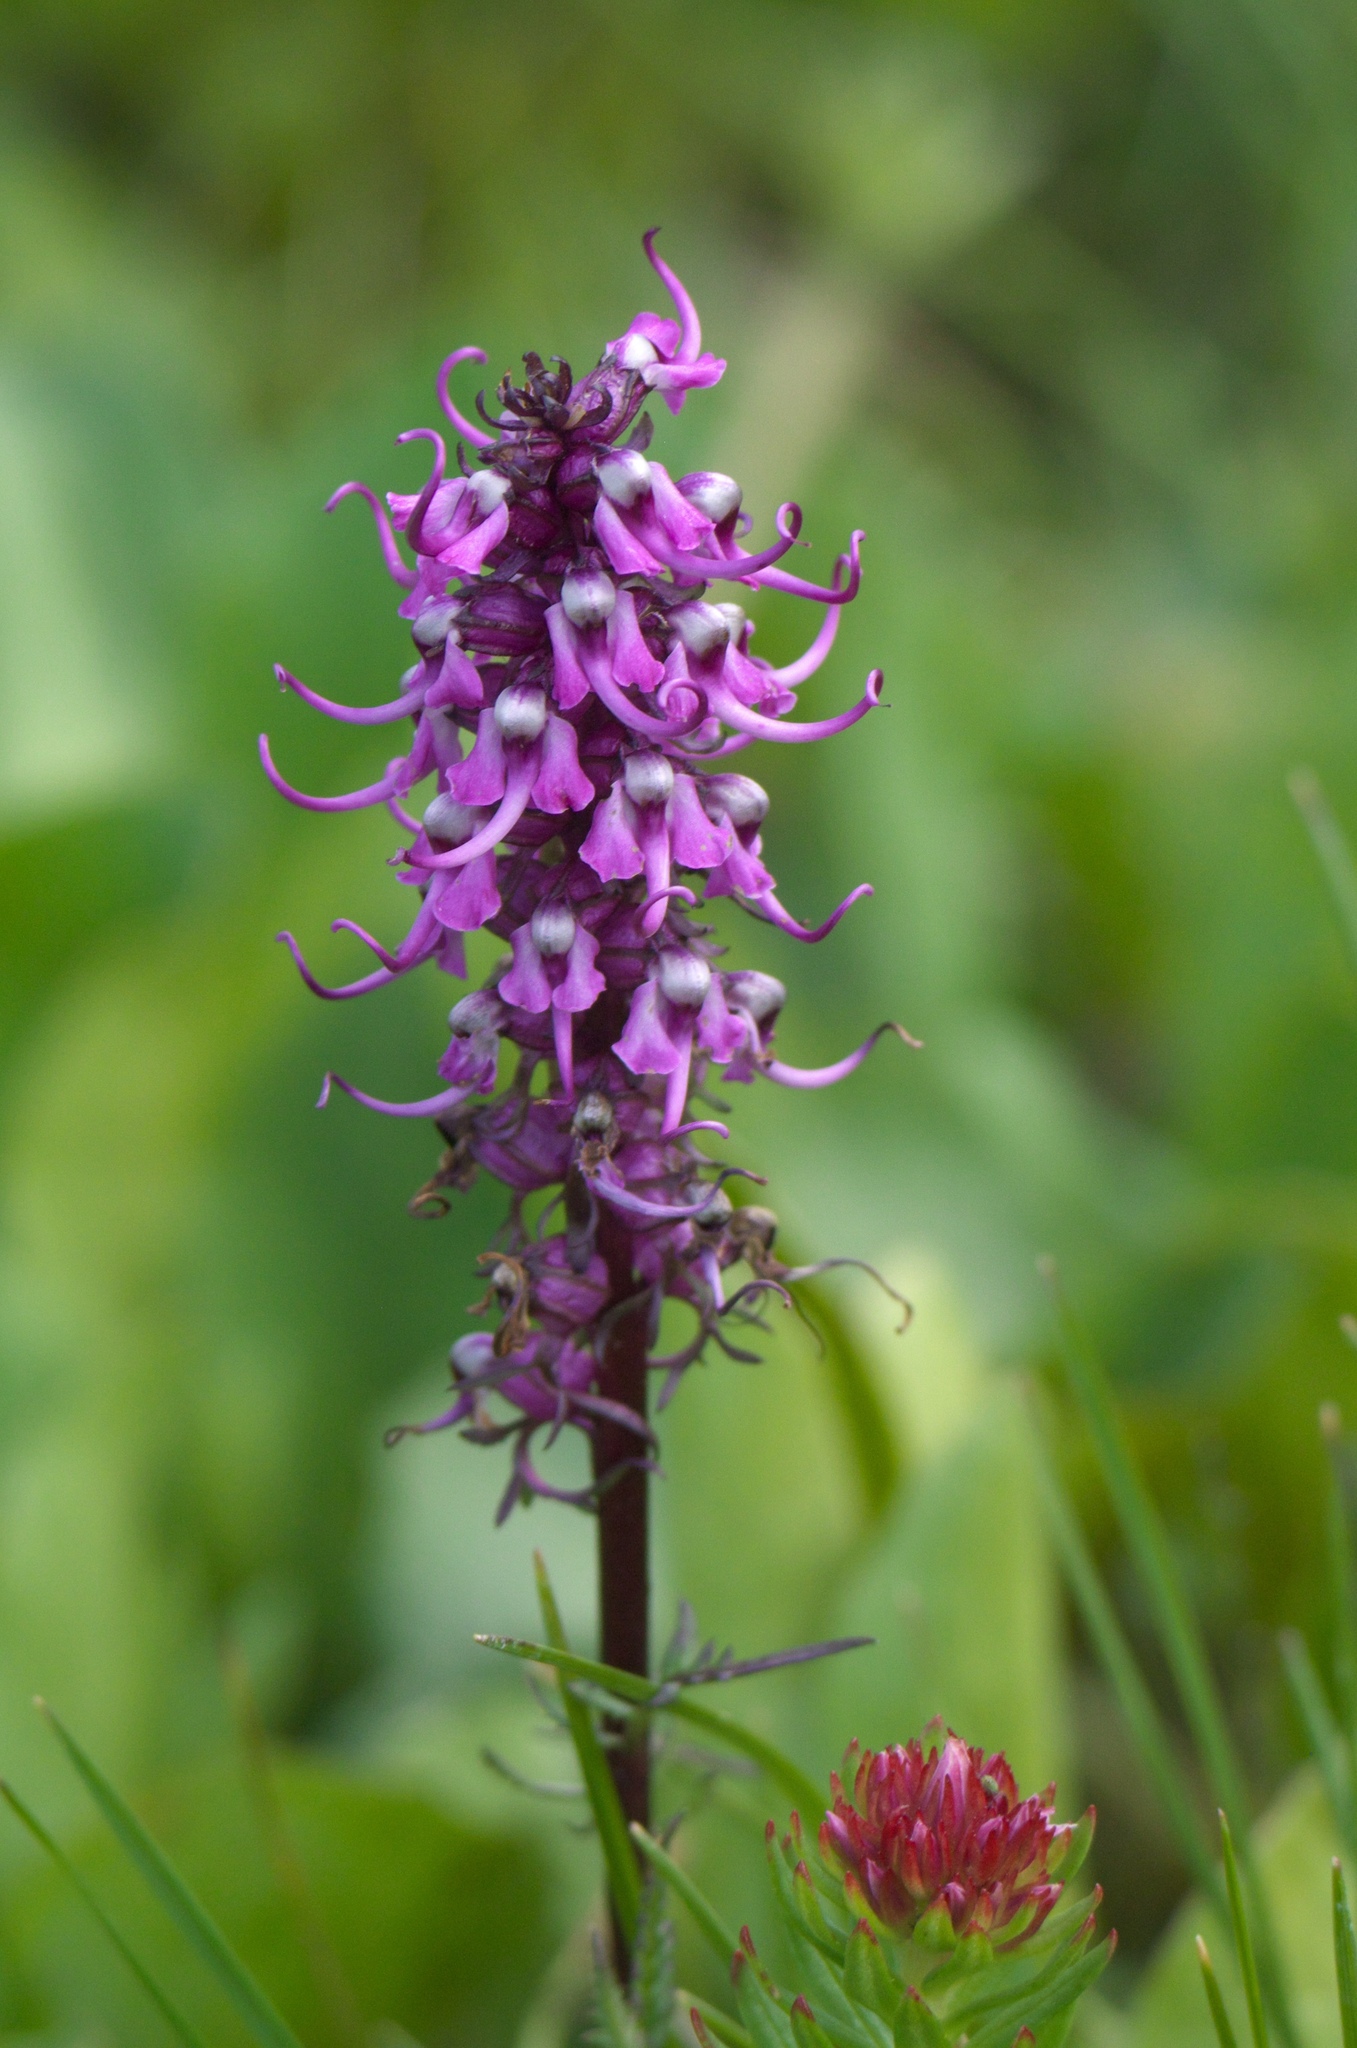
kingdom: Plantae
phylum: Tracheophyta
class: Magnoliopsida
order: Lamiales
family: Orobanchaceae
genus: Pedicularis
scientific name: Pedicularis groenlandica
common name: Elephant's-head
